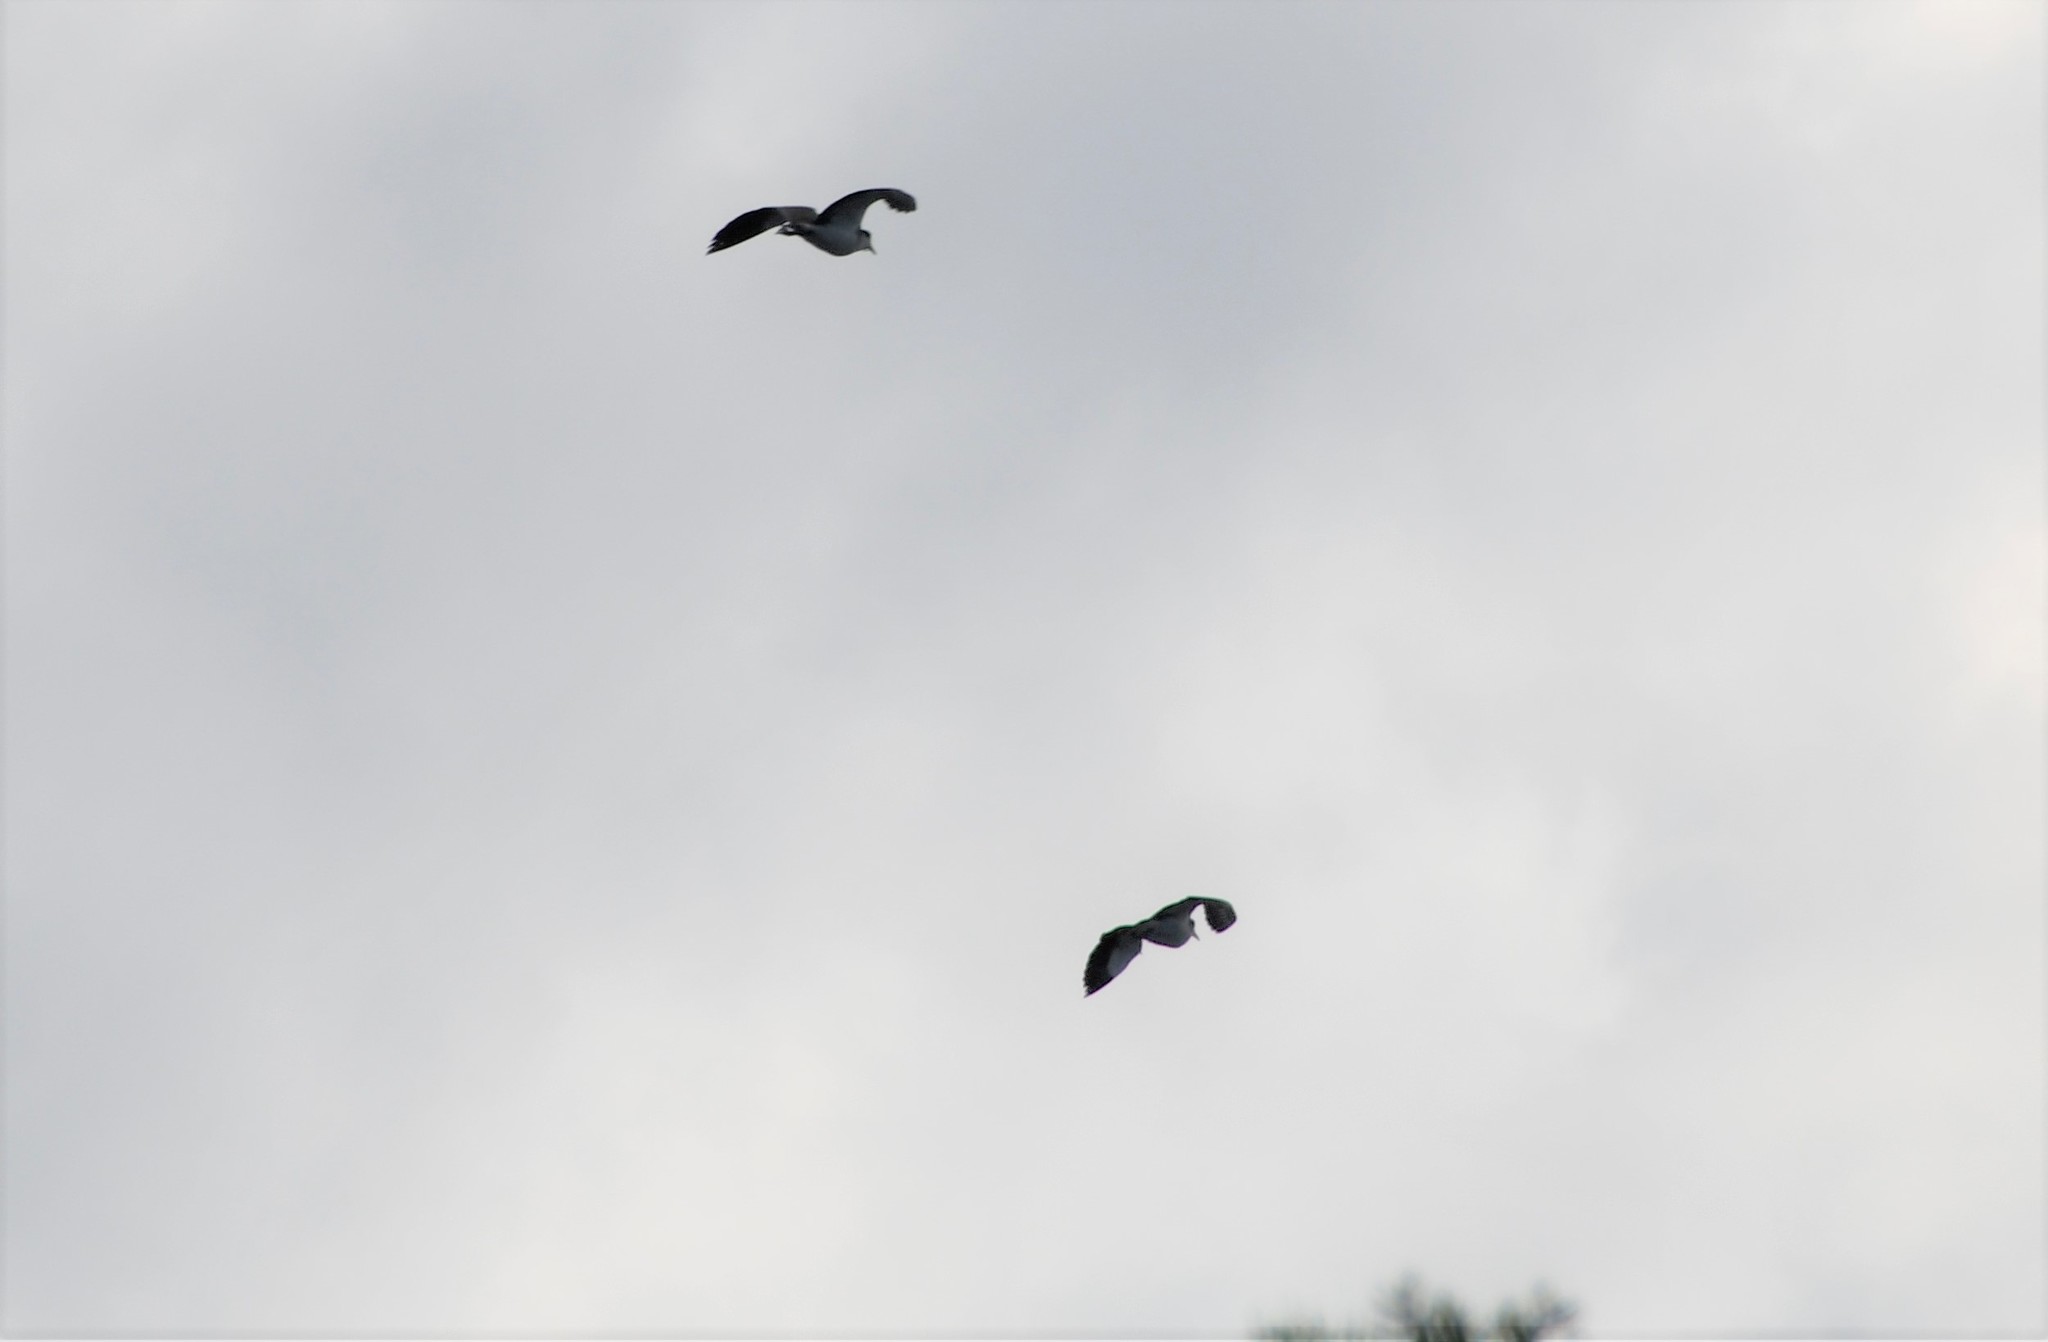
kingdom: Animalia
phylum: Chordata
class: Aves
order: Charadriiformes
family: Charadriidae
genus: Vanellus
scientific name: Vanellus miles
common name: Masked lapwing
